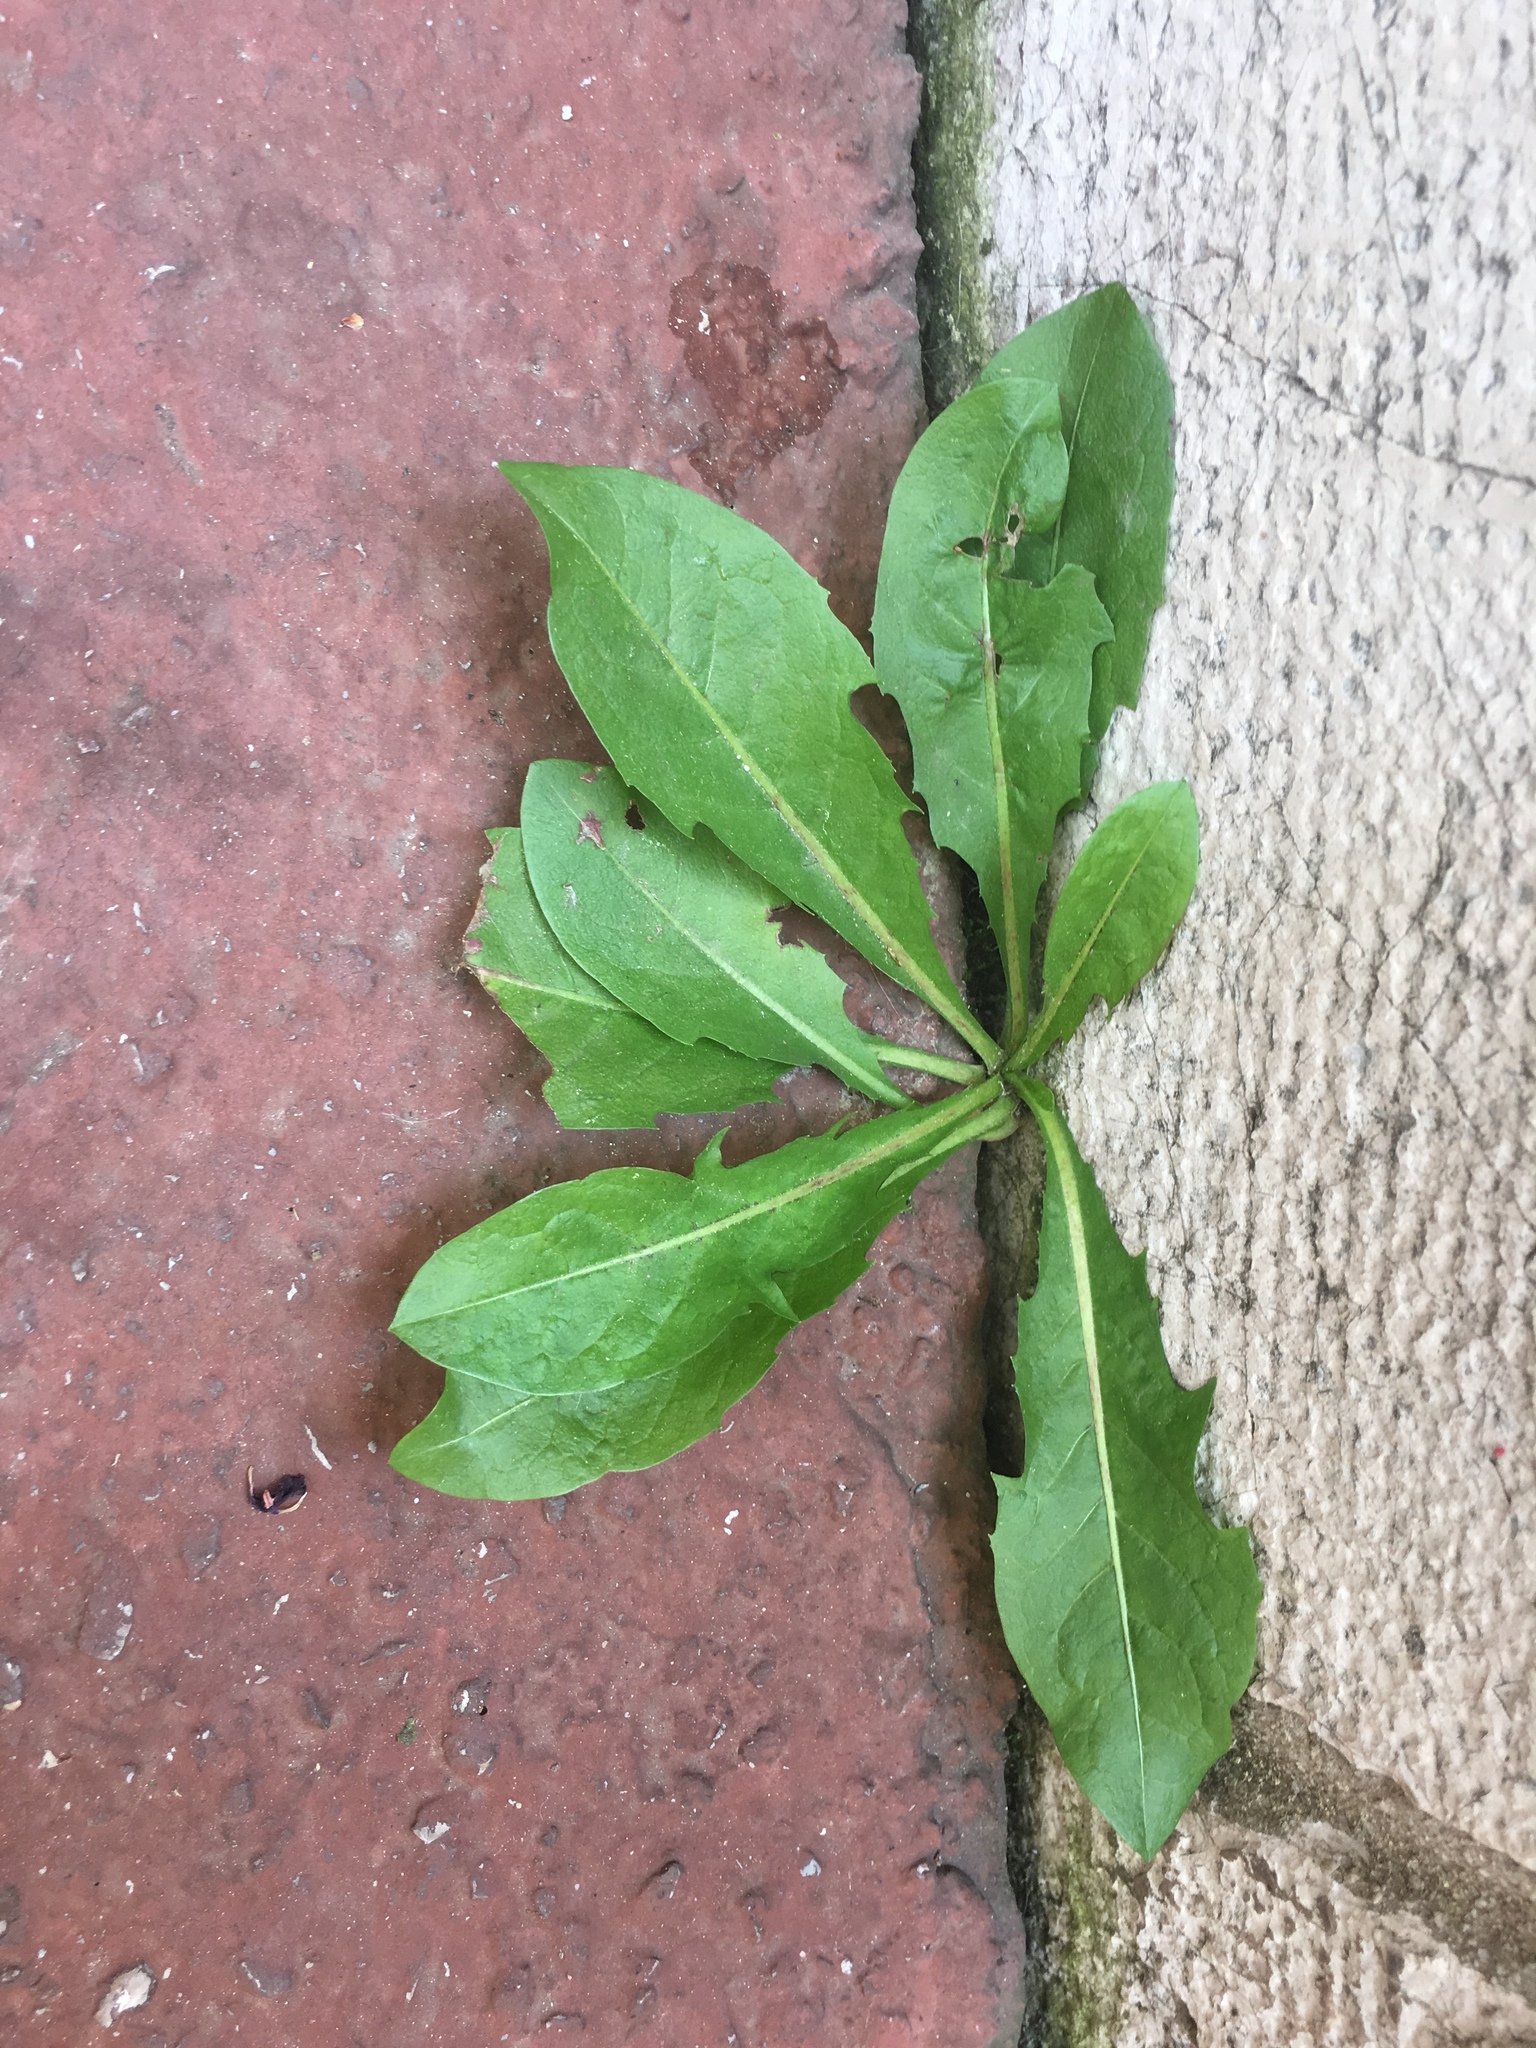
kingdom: Plantae
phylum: Tracheophyta
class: Magnoliopsida
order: Asterales
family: Asteraceae
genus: Taraxacum
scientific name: Taraxacum officinale
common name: Common dandelion
